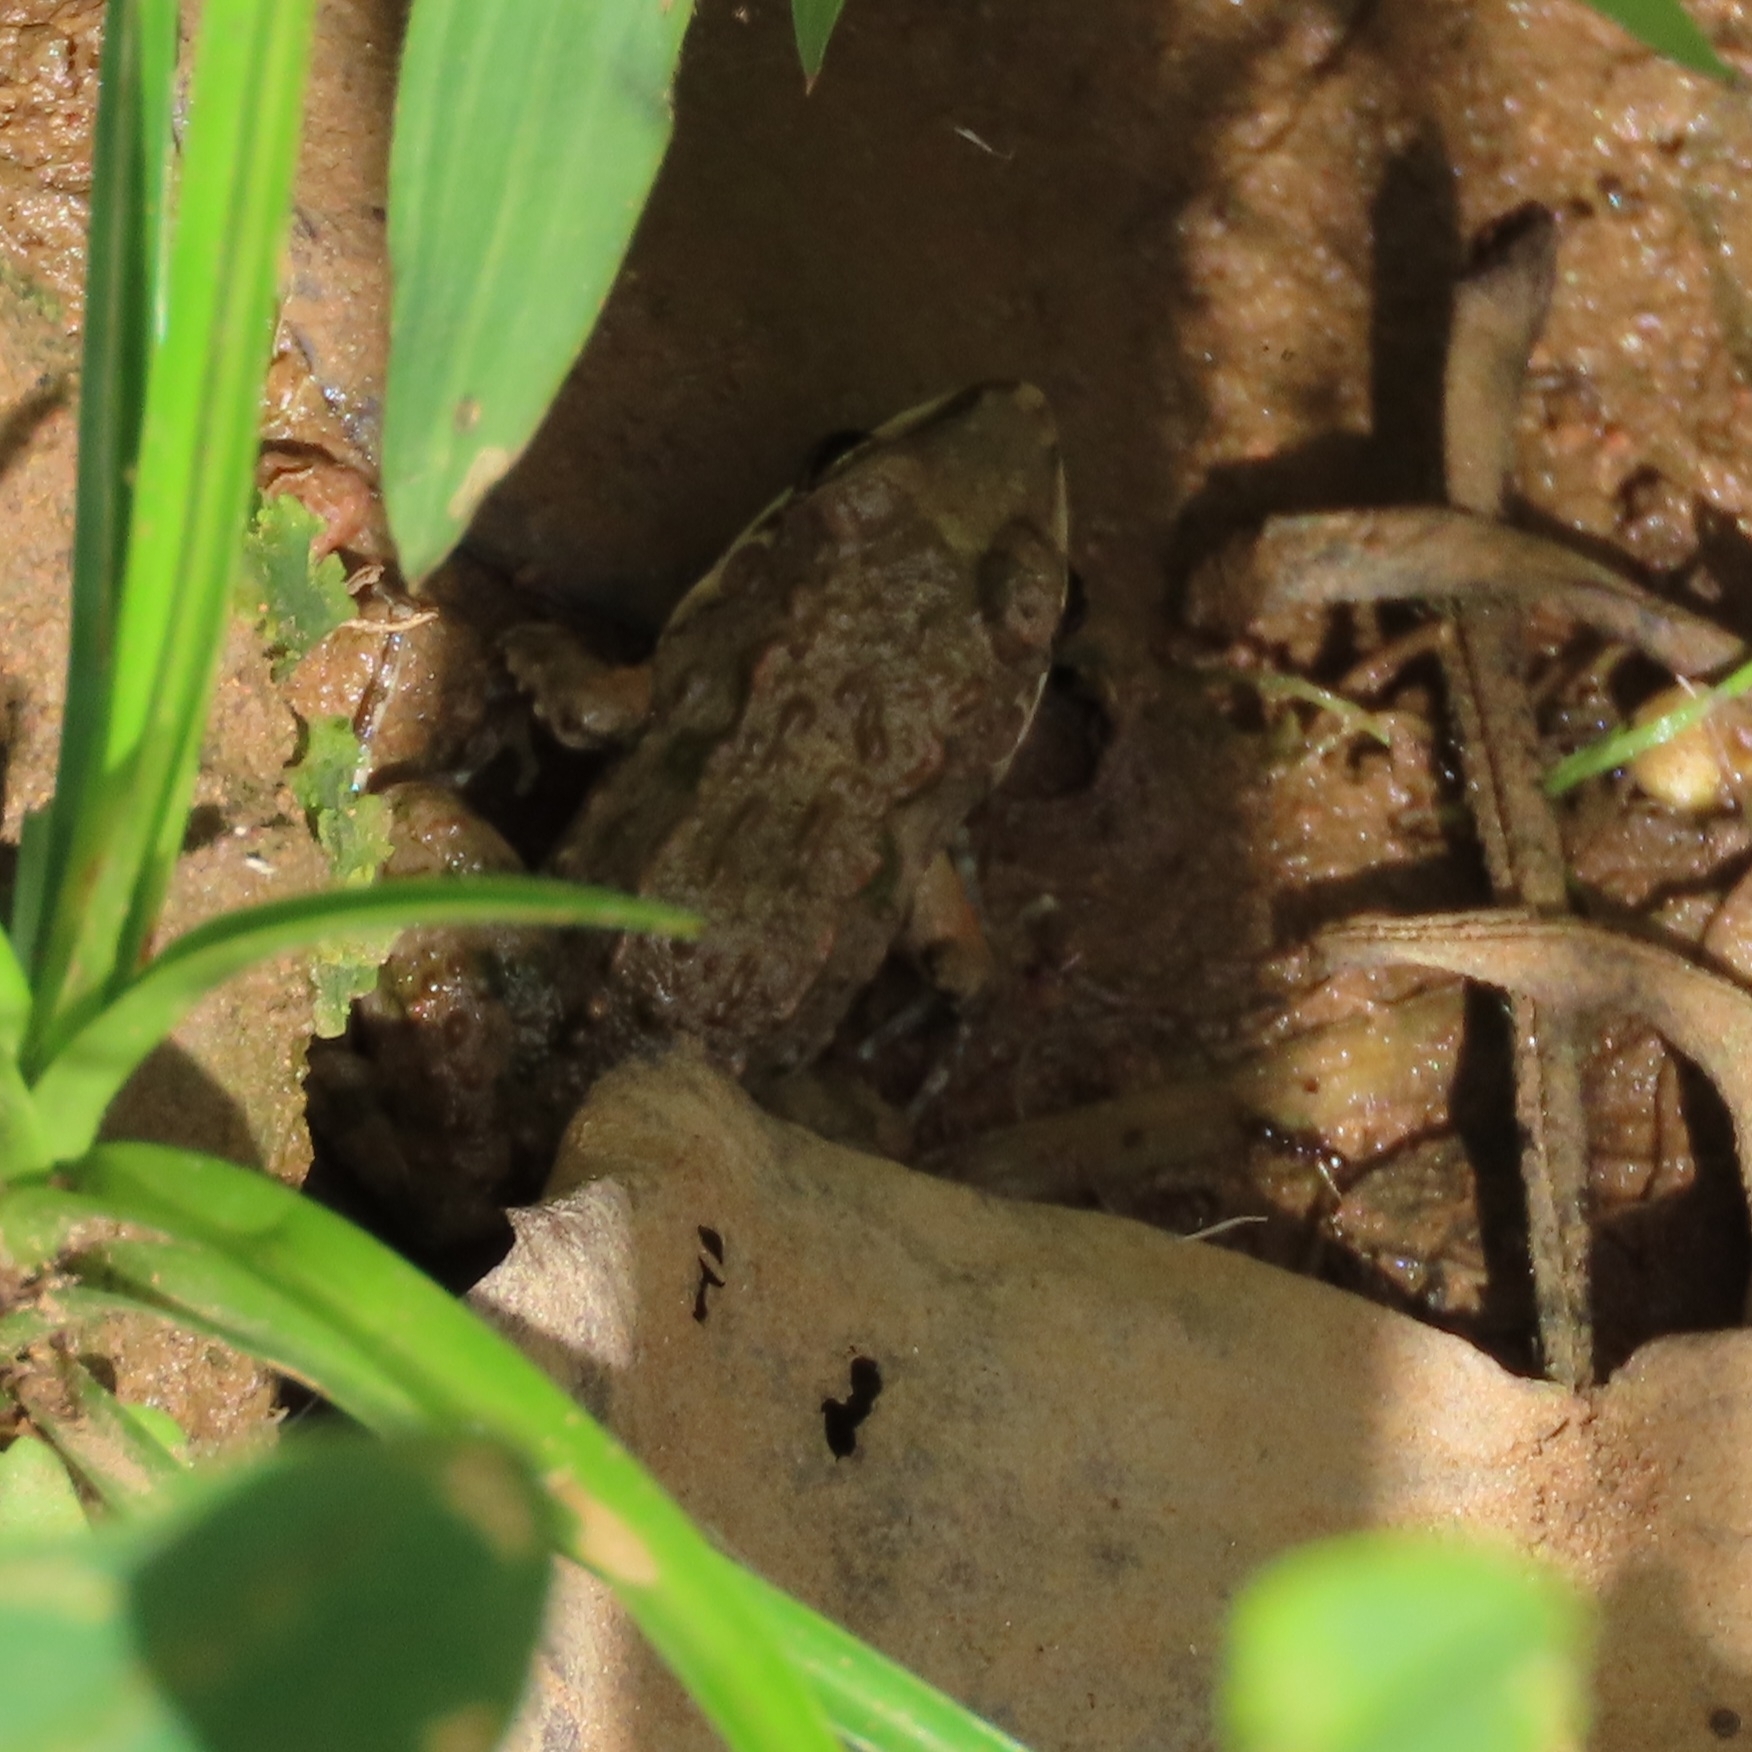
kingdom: Animalia
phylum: Chordata
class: Amphibia
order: Anura
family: Leptodactylidae
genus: Leptodactylus
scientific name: Leptodactylus fragilis
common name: Mexican white-lipped frog
